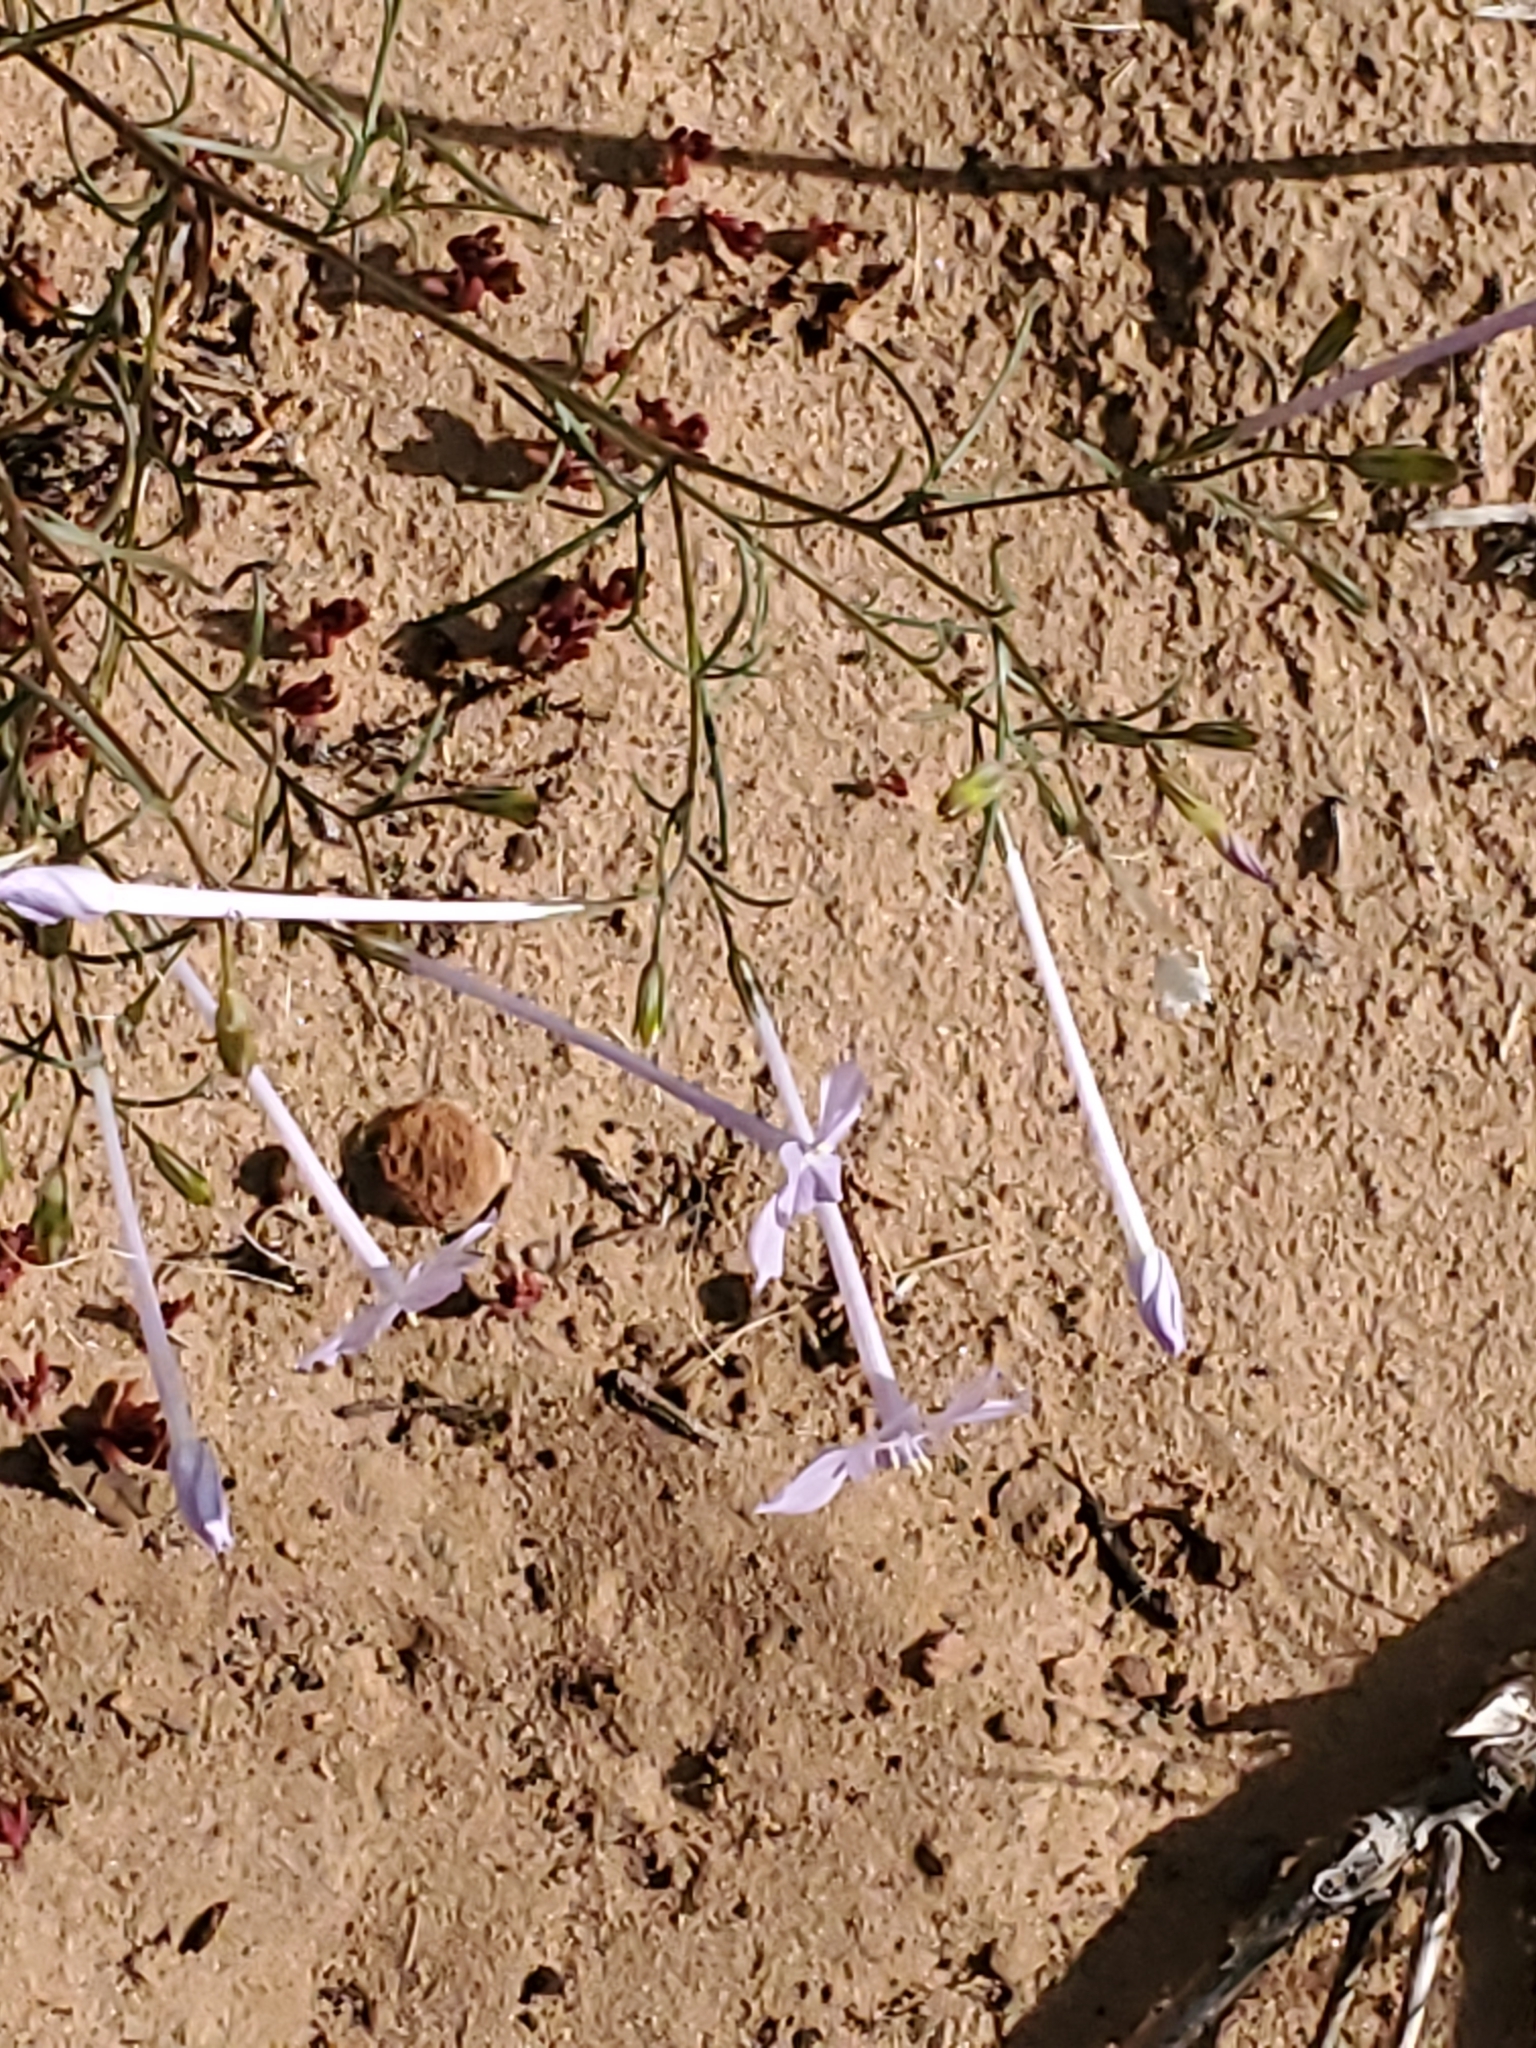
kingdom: Plantae
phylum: Tracheophyta
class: Magnoliopsida
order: Ericales
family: Polemoniaceae
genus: Ipomopsis
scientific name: Ipomopsis longiflora
